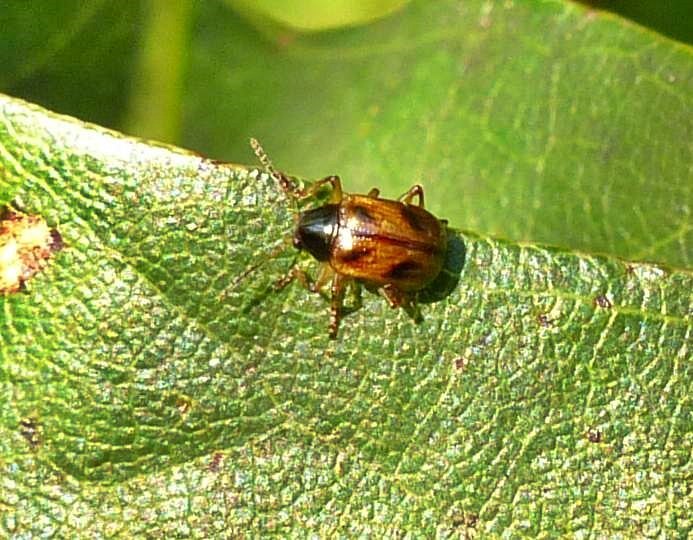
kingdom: Animalia
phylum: Arthropoda
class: Insecta
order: Coleoptera
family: Chrysomelidae
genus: Paria
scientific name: Paria fragariae
